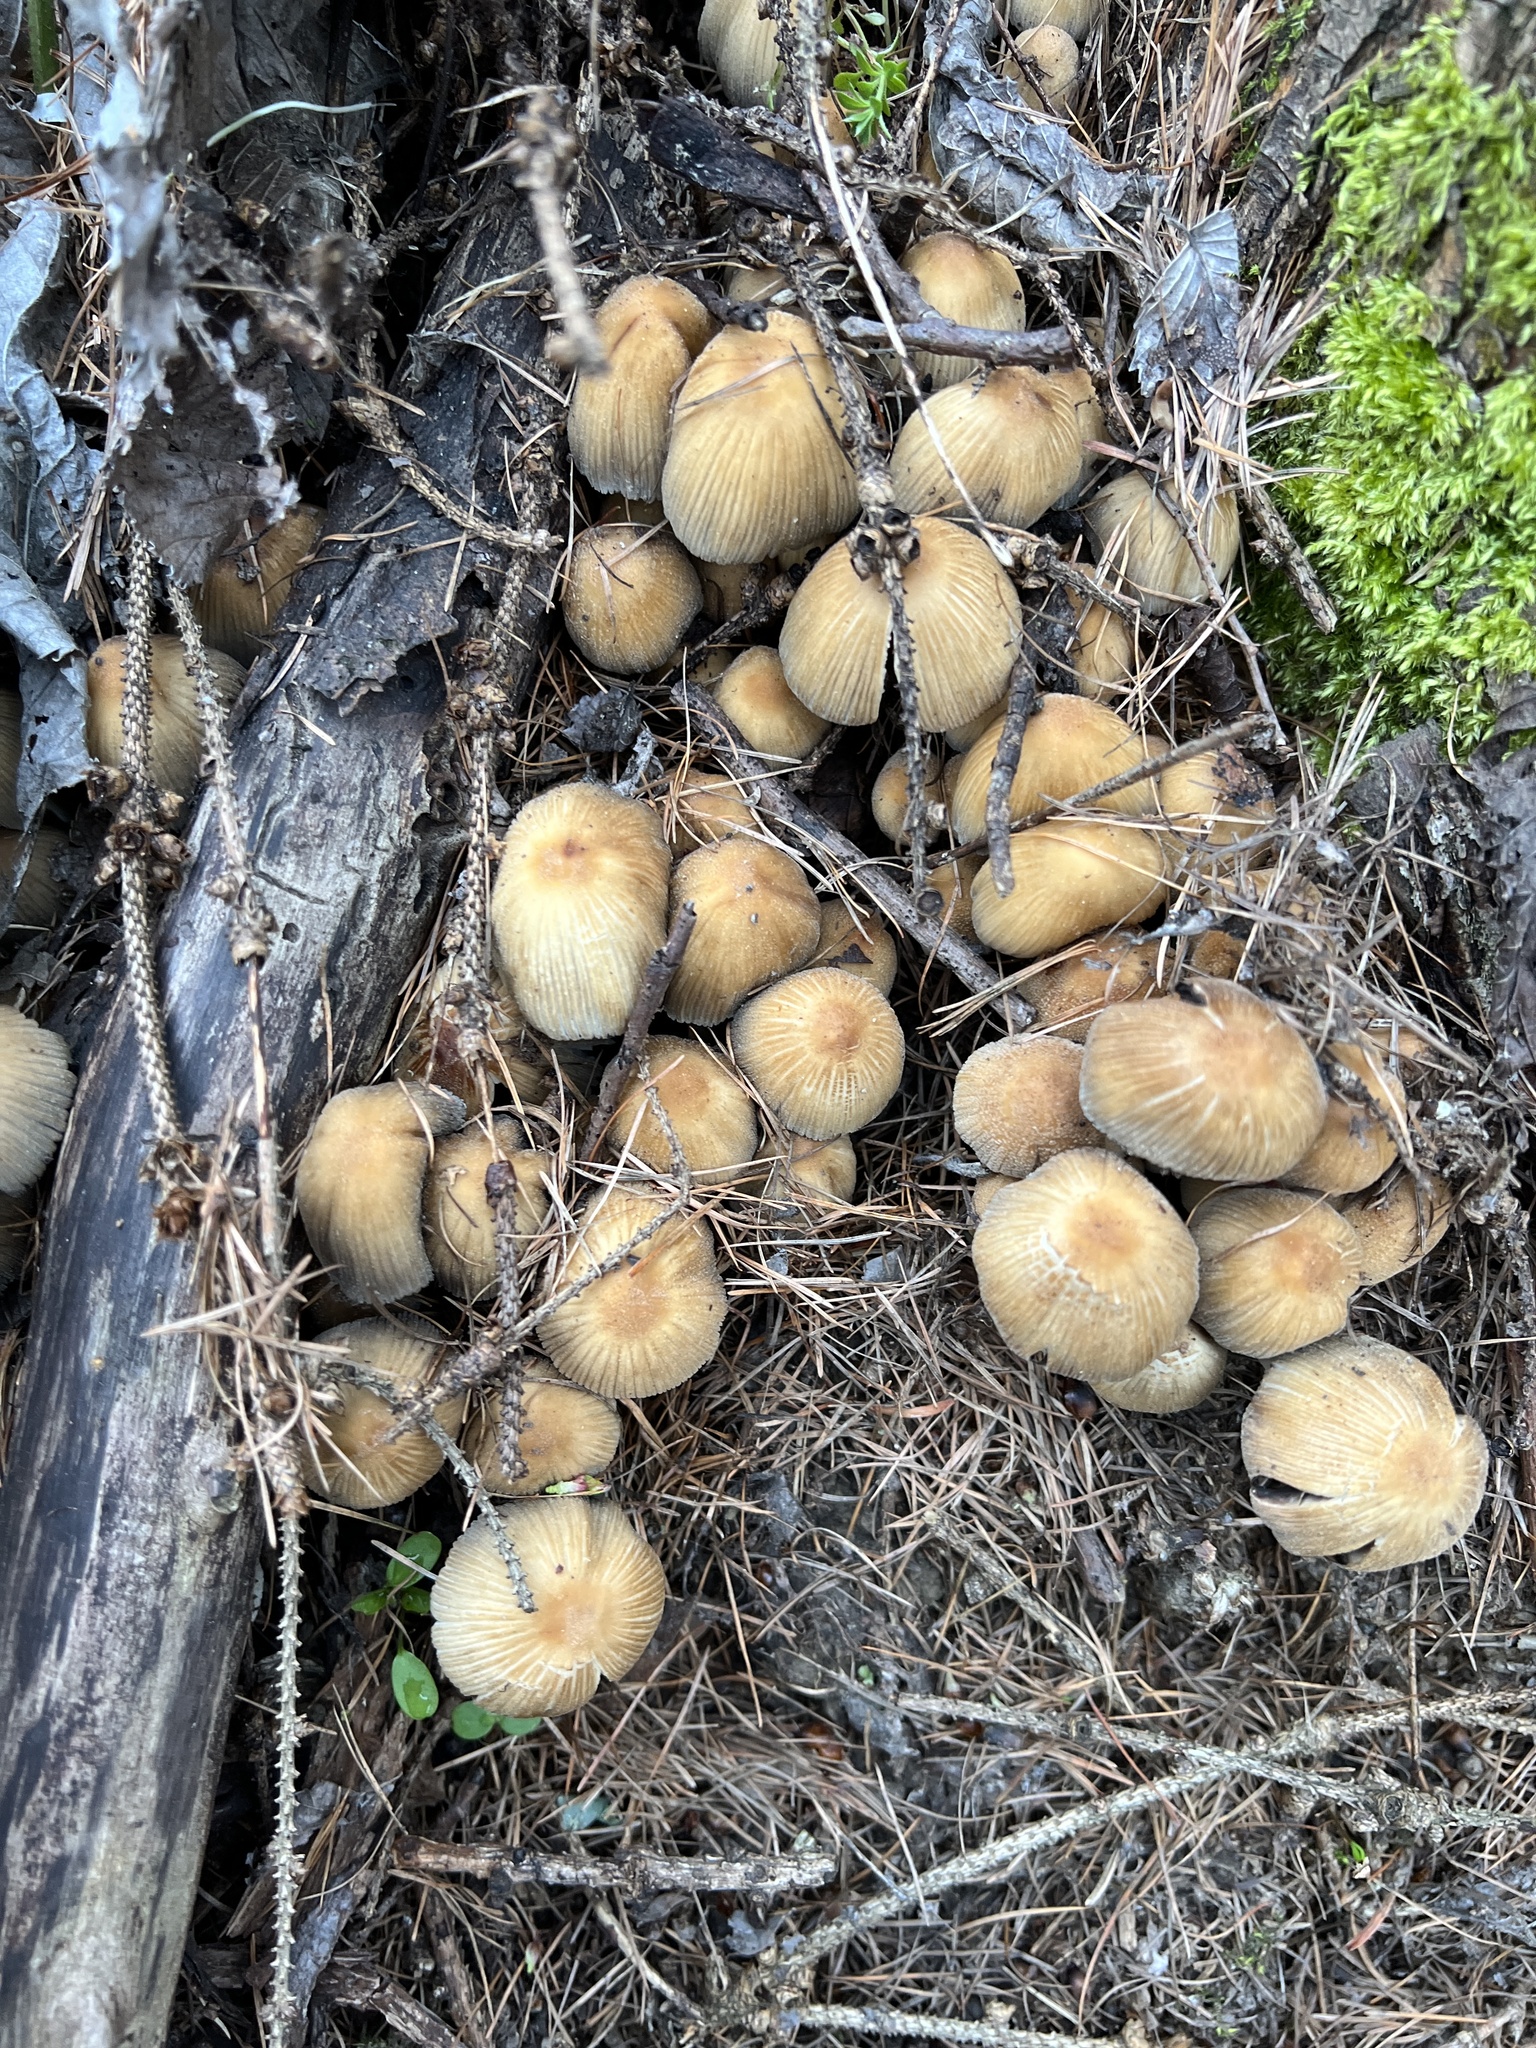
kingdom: Fungi
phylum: Basidiomycota
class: Agaricomycetes
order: Agaricales
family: Psathyrellaceae
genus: Coprinellus
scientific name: Coprinellus micaceus
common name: Glistening ink-cap
